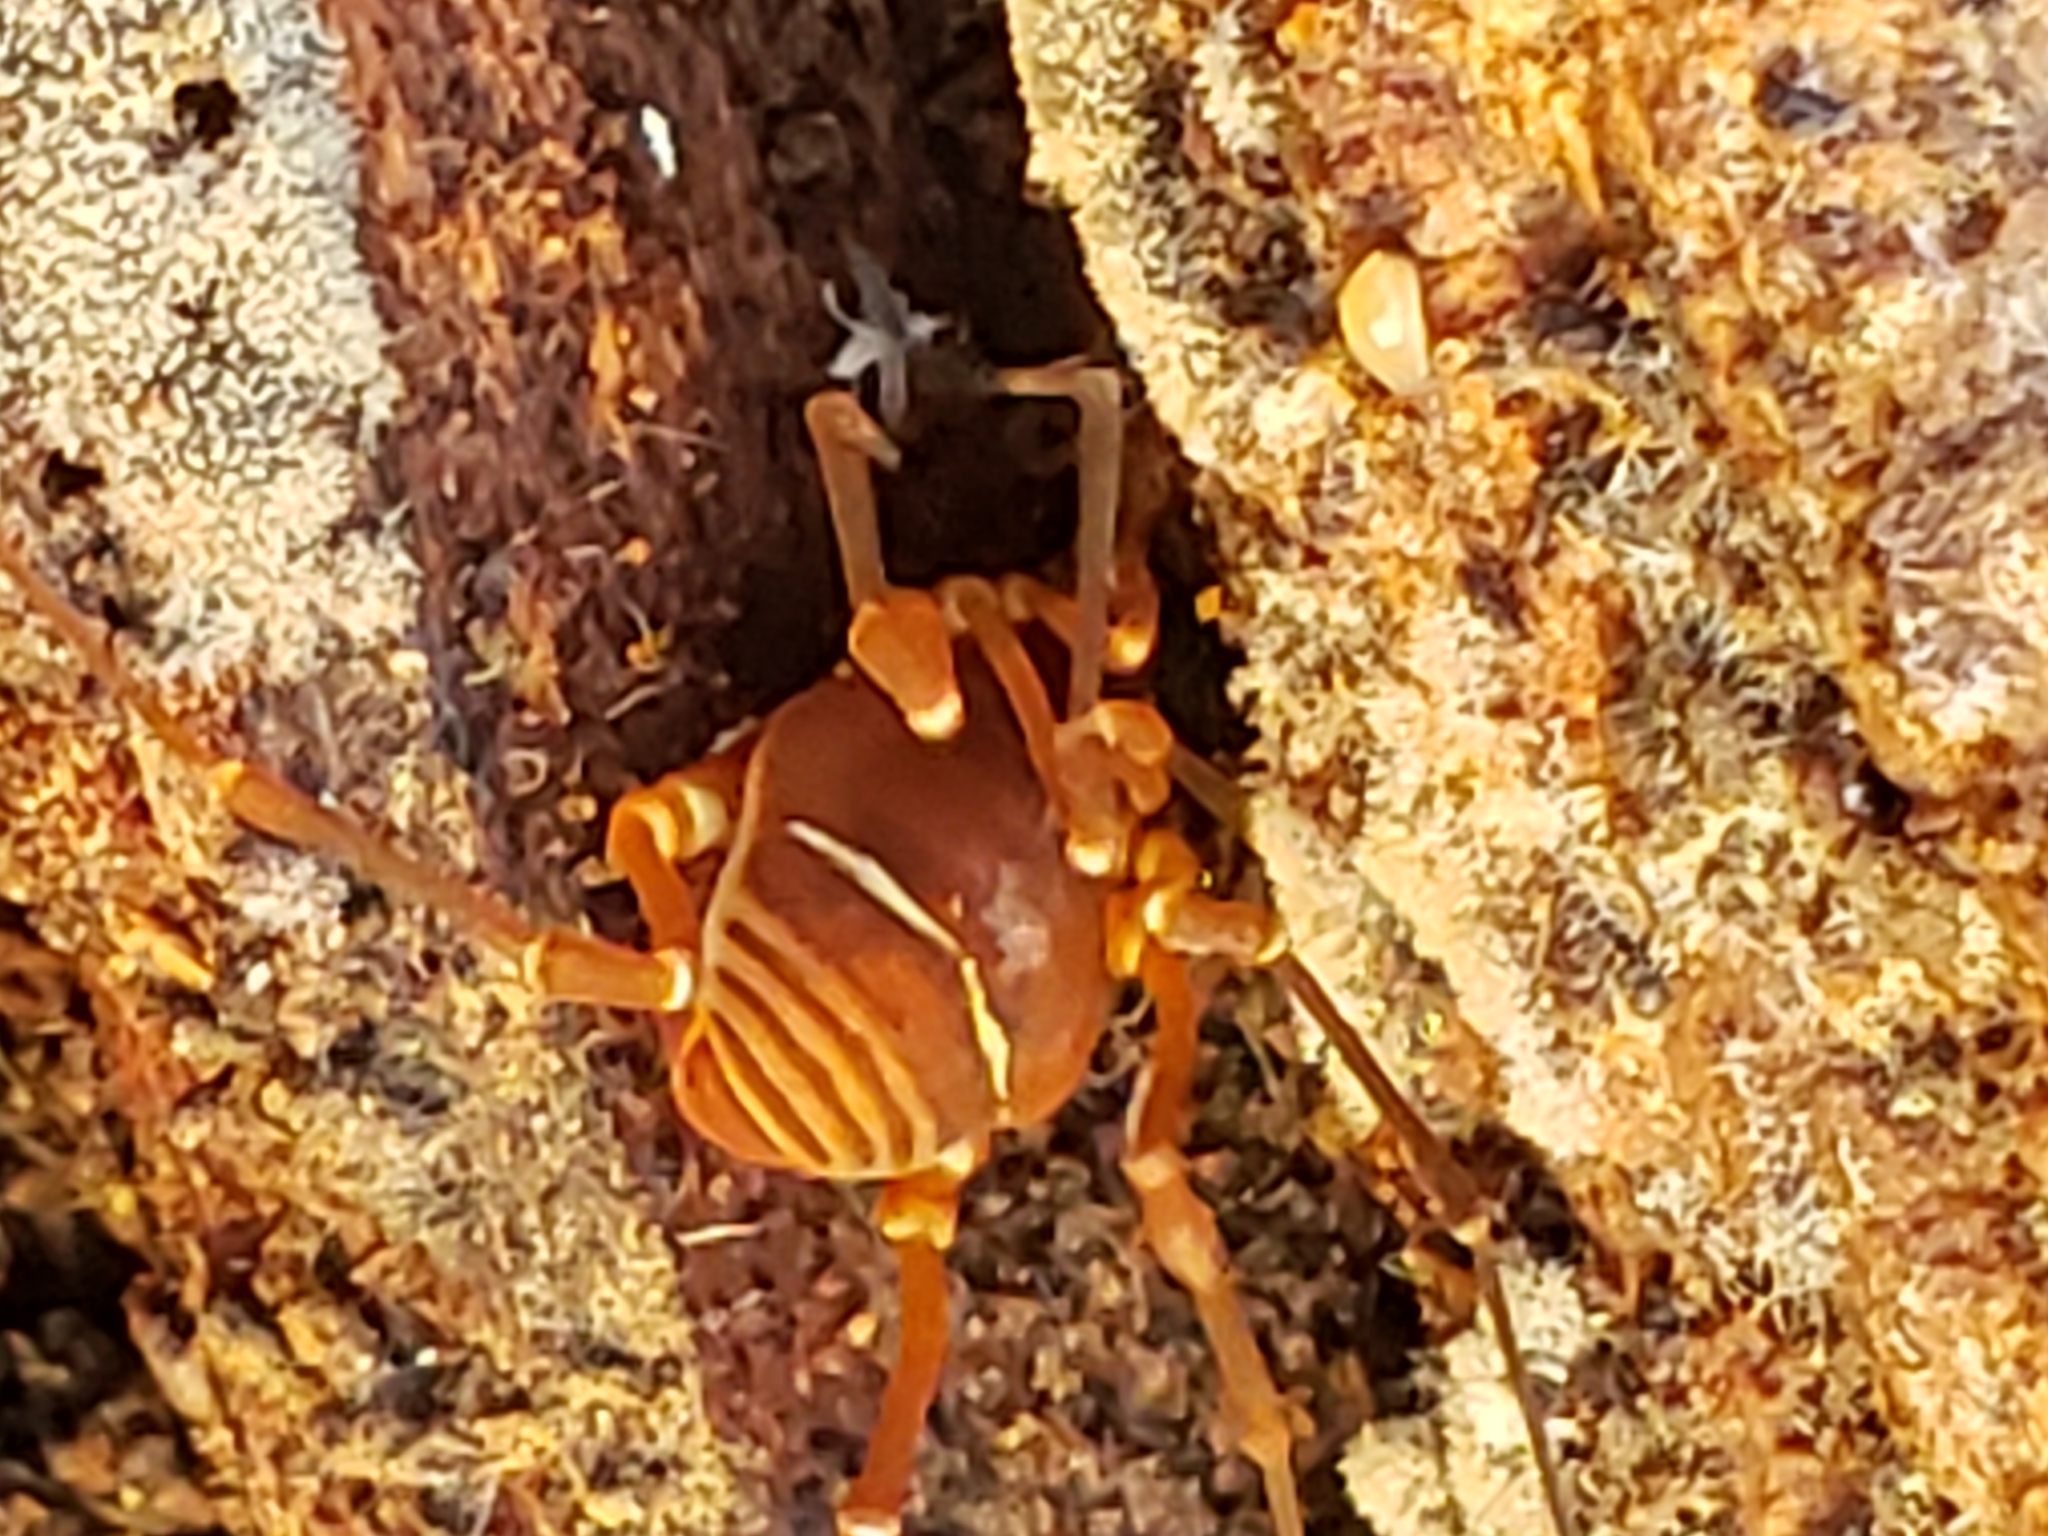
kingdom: Animalia
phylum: Arthropoda
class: Arachnida
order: Opiliones
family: Cosmetidae
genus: Libitioides
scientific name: Libitioides sayi
